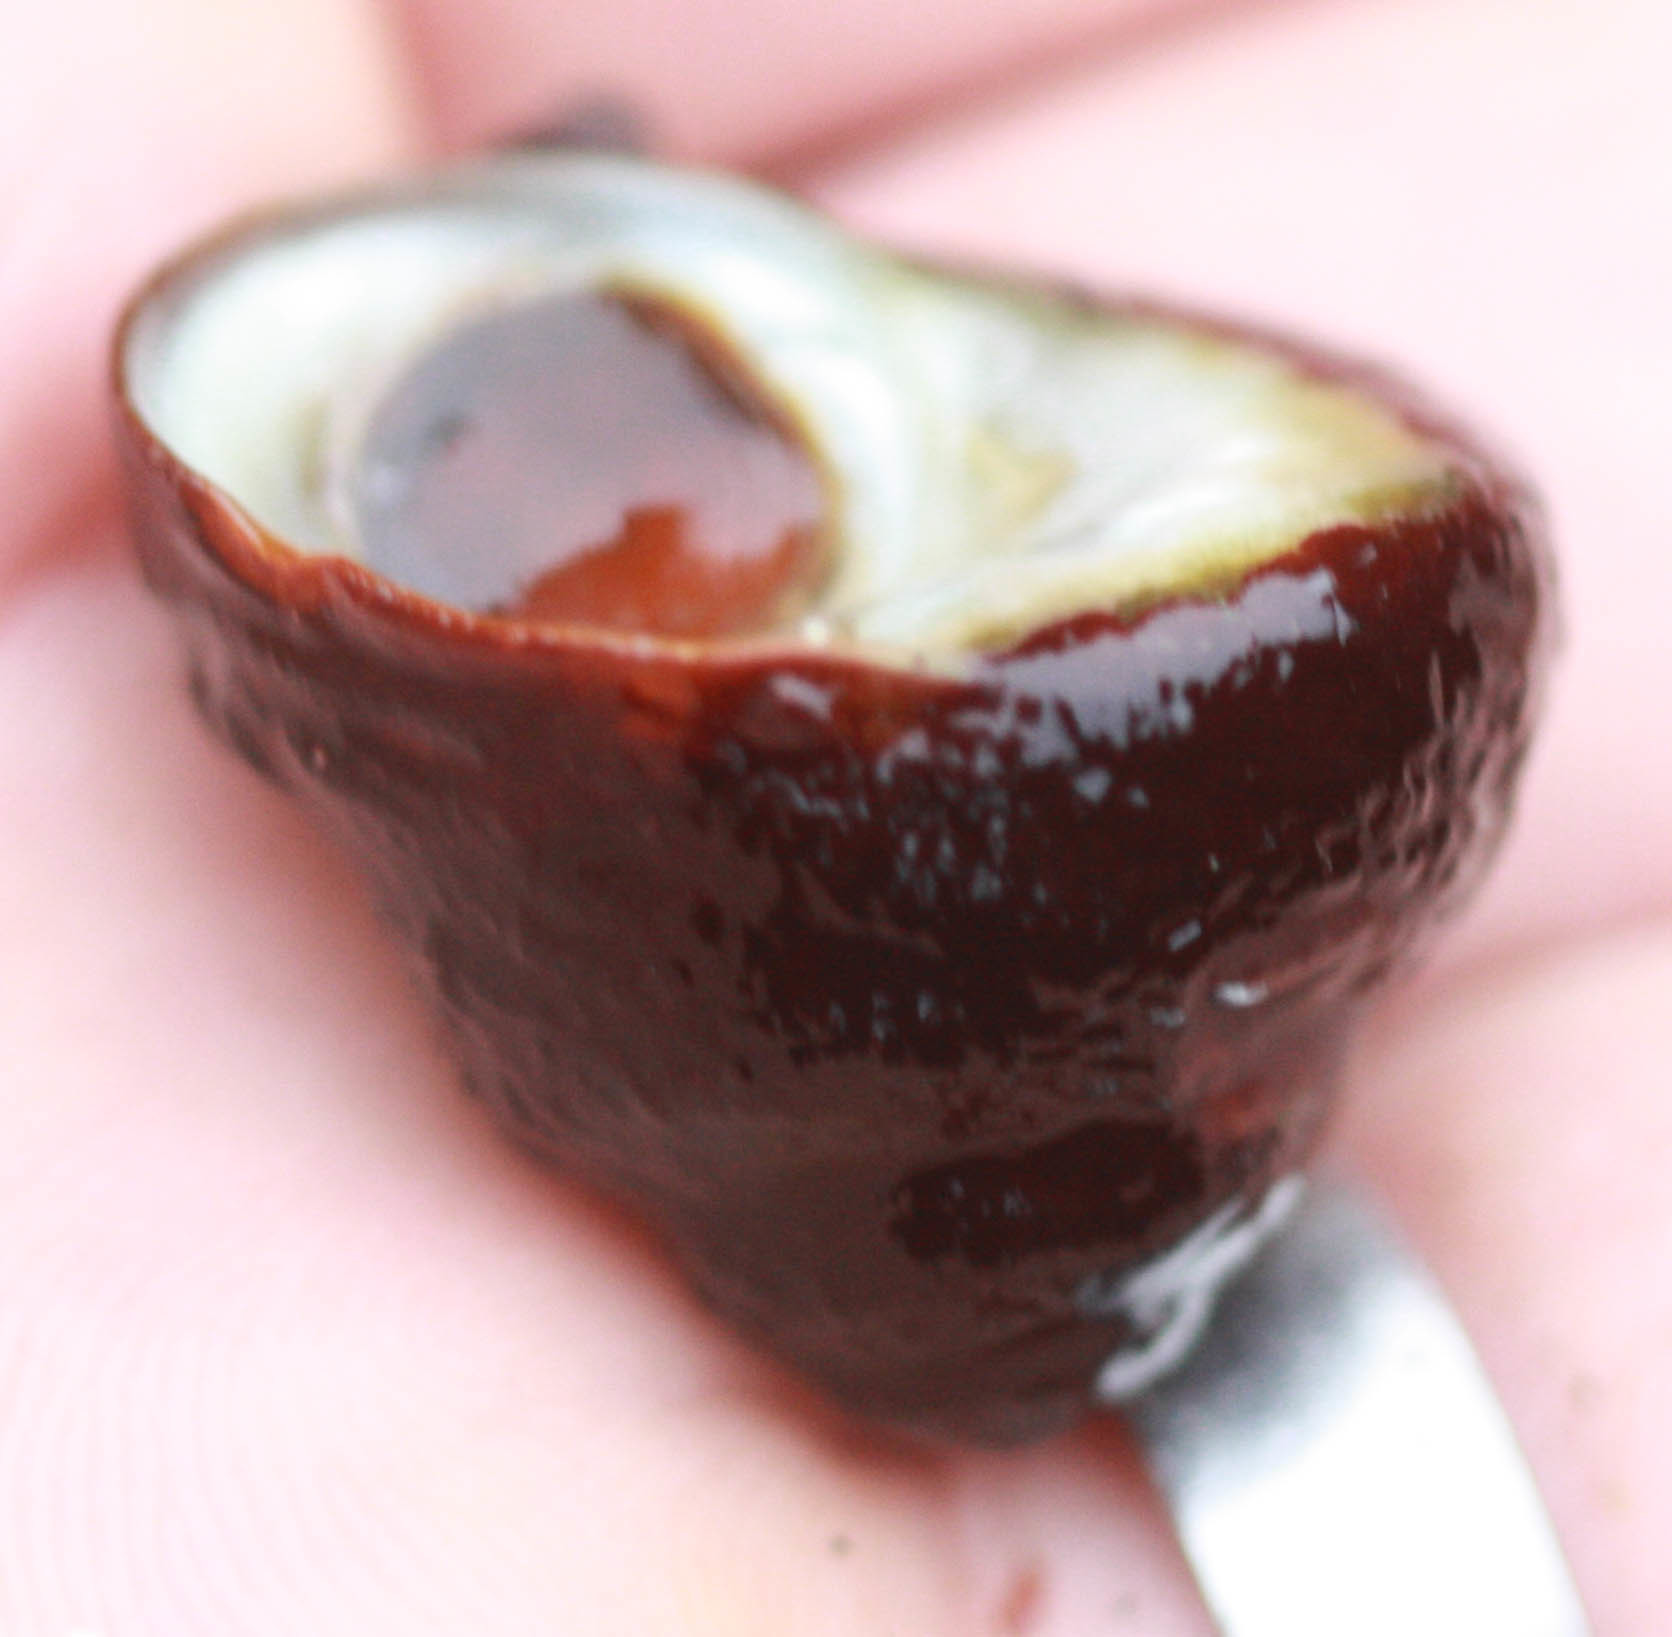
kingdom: Animalia
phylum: Mollusca
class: Gastropoda
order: Trochida
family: Tegulidae
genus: Tegula
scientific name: Tegula brunnea
